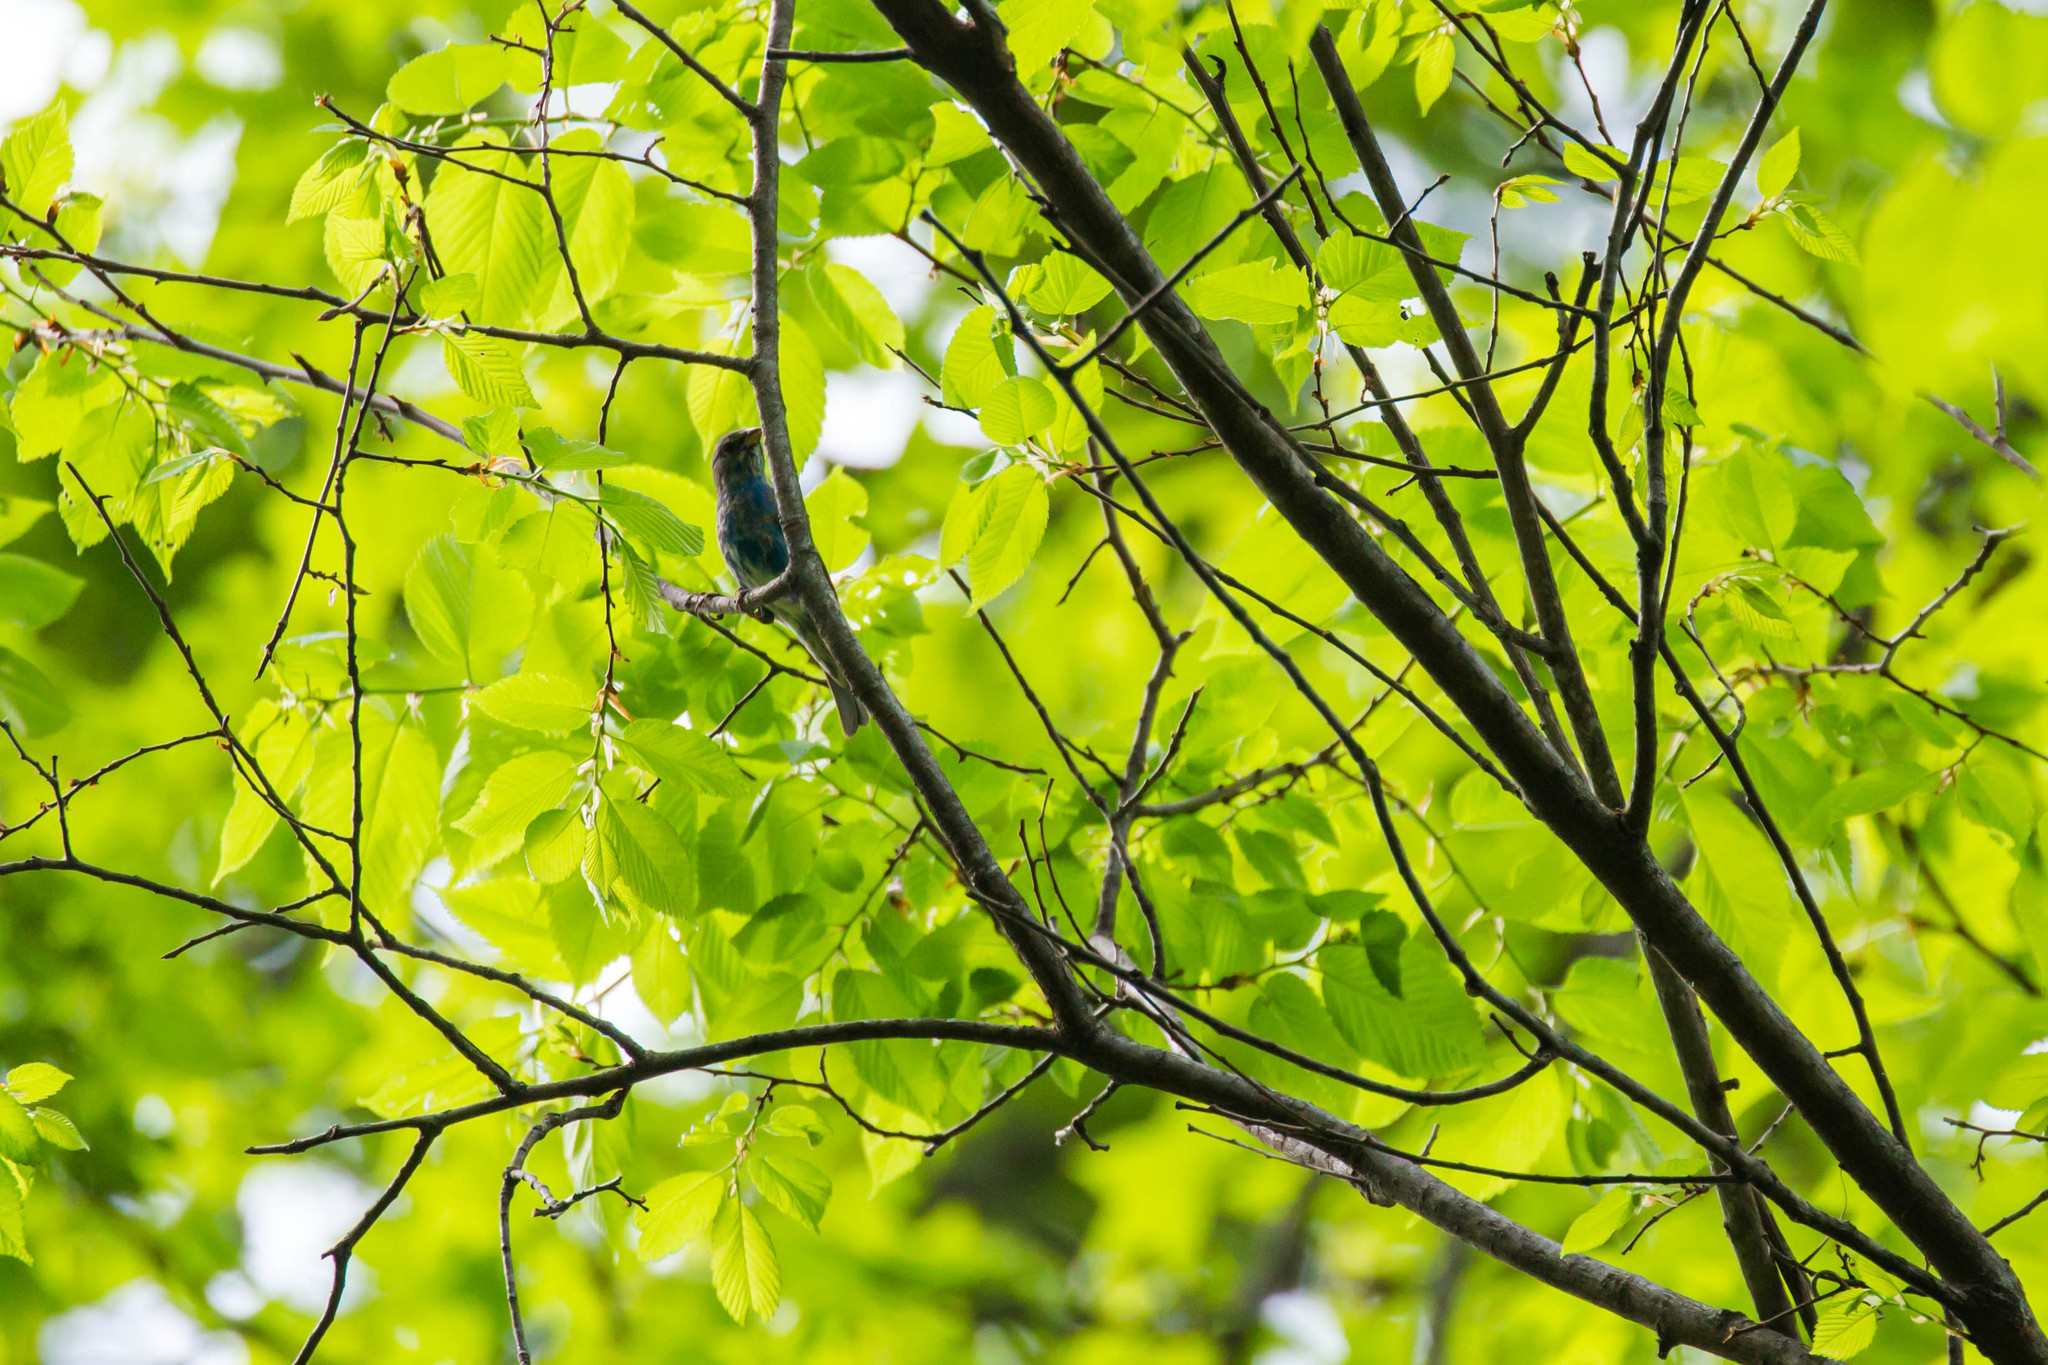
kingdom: Animalia
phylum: Chordata
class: Aves
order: Passeriformes
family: Cardinalidae
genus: Passerina
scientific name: Passerina cyanea
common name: Indigo bunting
